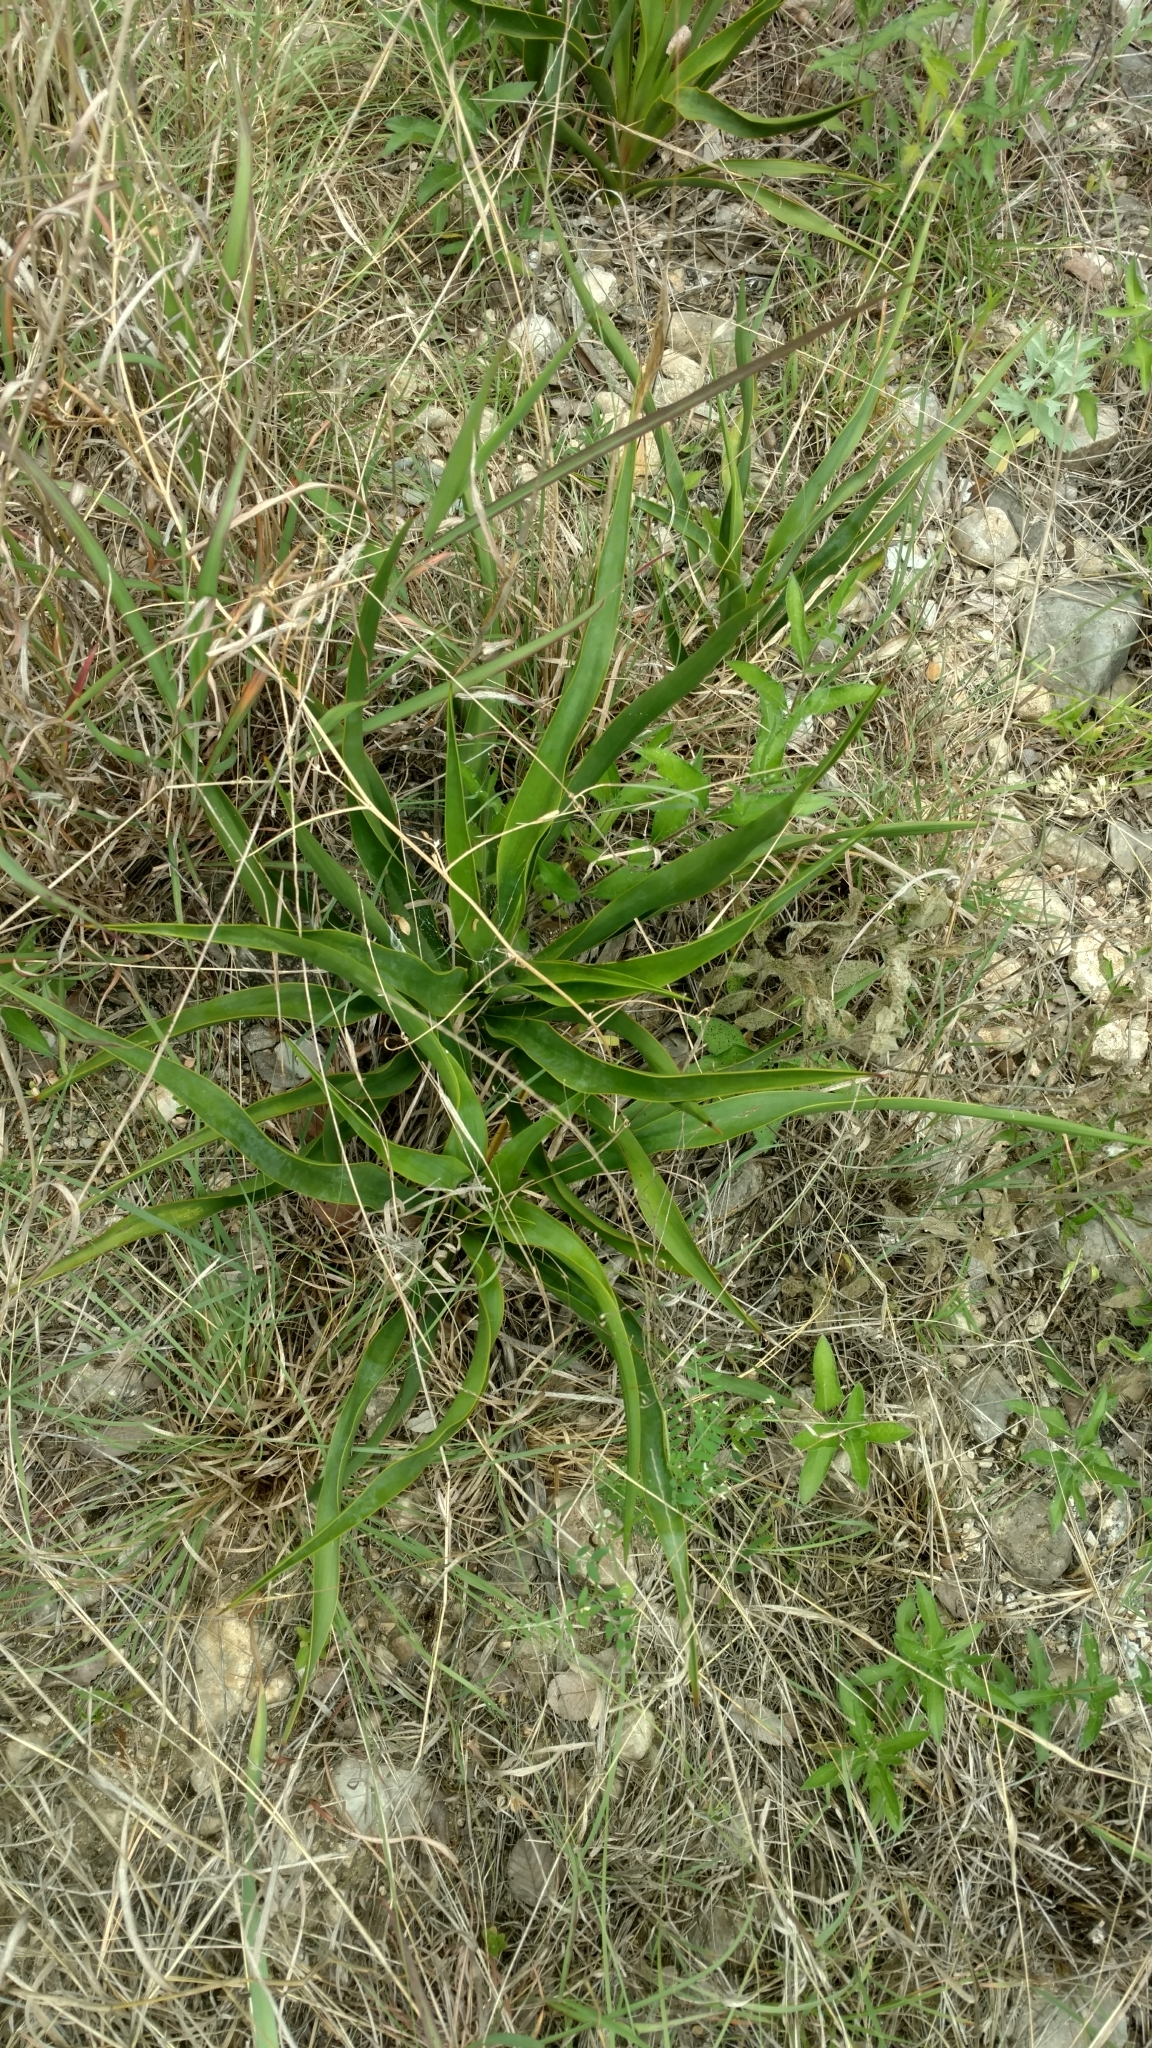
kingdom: Plantae
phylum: Tracheophyta
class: Liliopsida
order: Asparagales
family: Asparagaceae
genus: Yucca
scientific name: Yucca rupicola
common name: Twisted-leaf spanish-dagger
